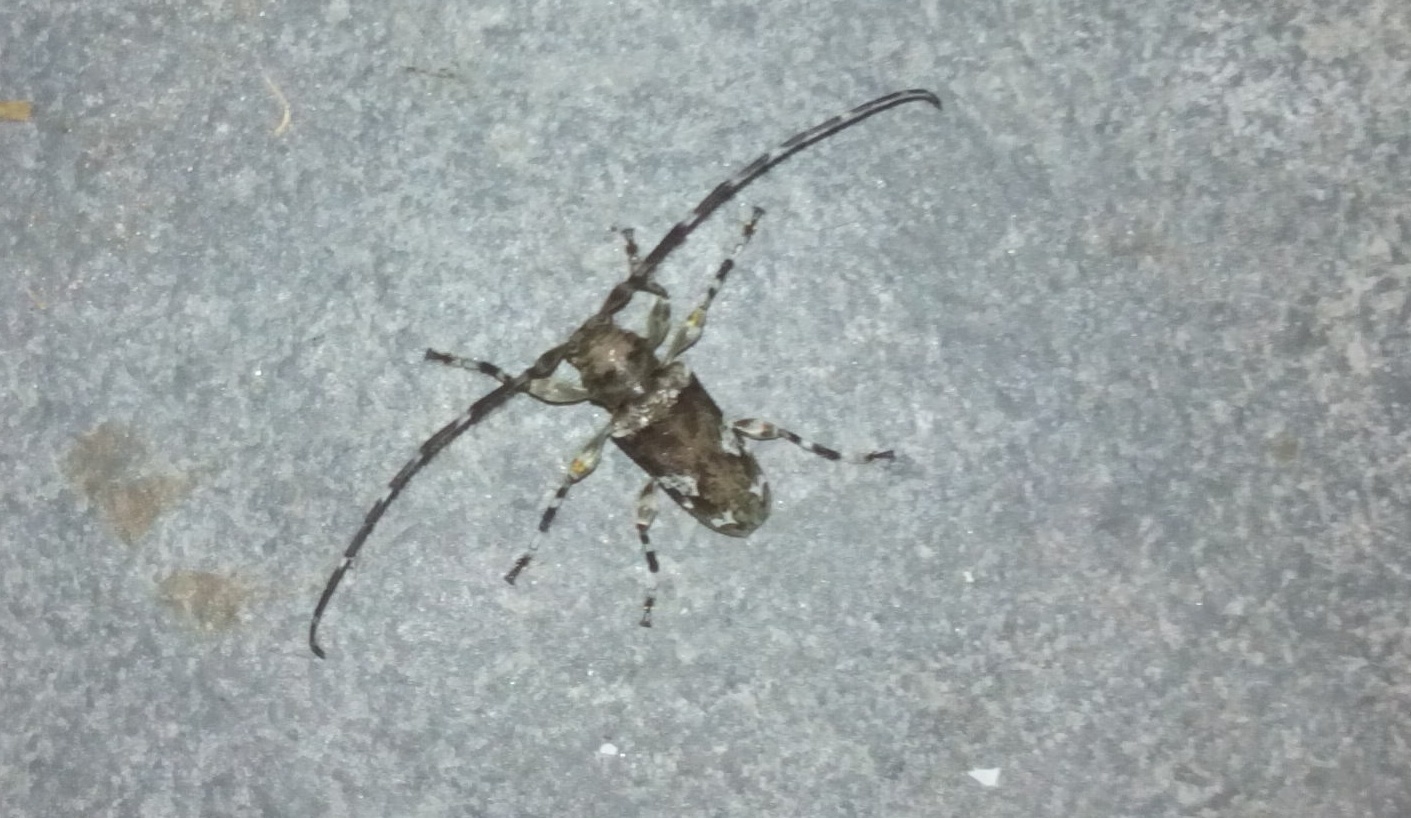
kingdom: Animalia
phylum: Arthropoda
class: Insecta
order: Coleoptera
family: Cerambycidae
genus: Oreodera
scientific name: Oreodera sexplagiata
